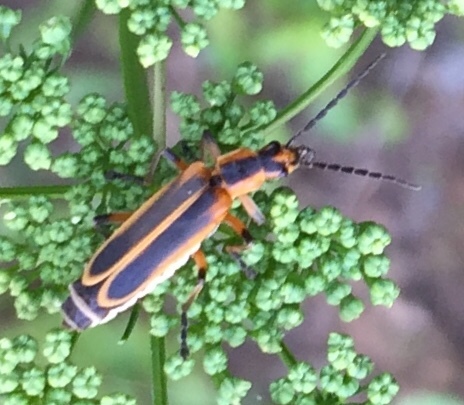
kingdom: Animalia
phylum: Arthropoda
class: Insecta
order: Coleoptera
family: Cantharidae
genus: Chauliognathus
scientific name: Chauliognathus marginatus
